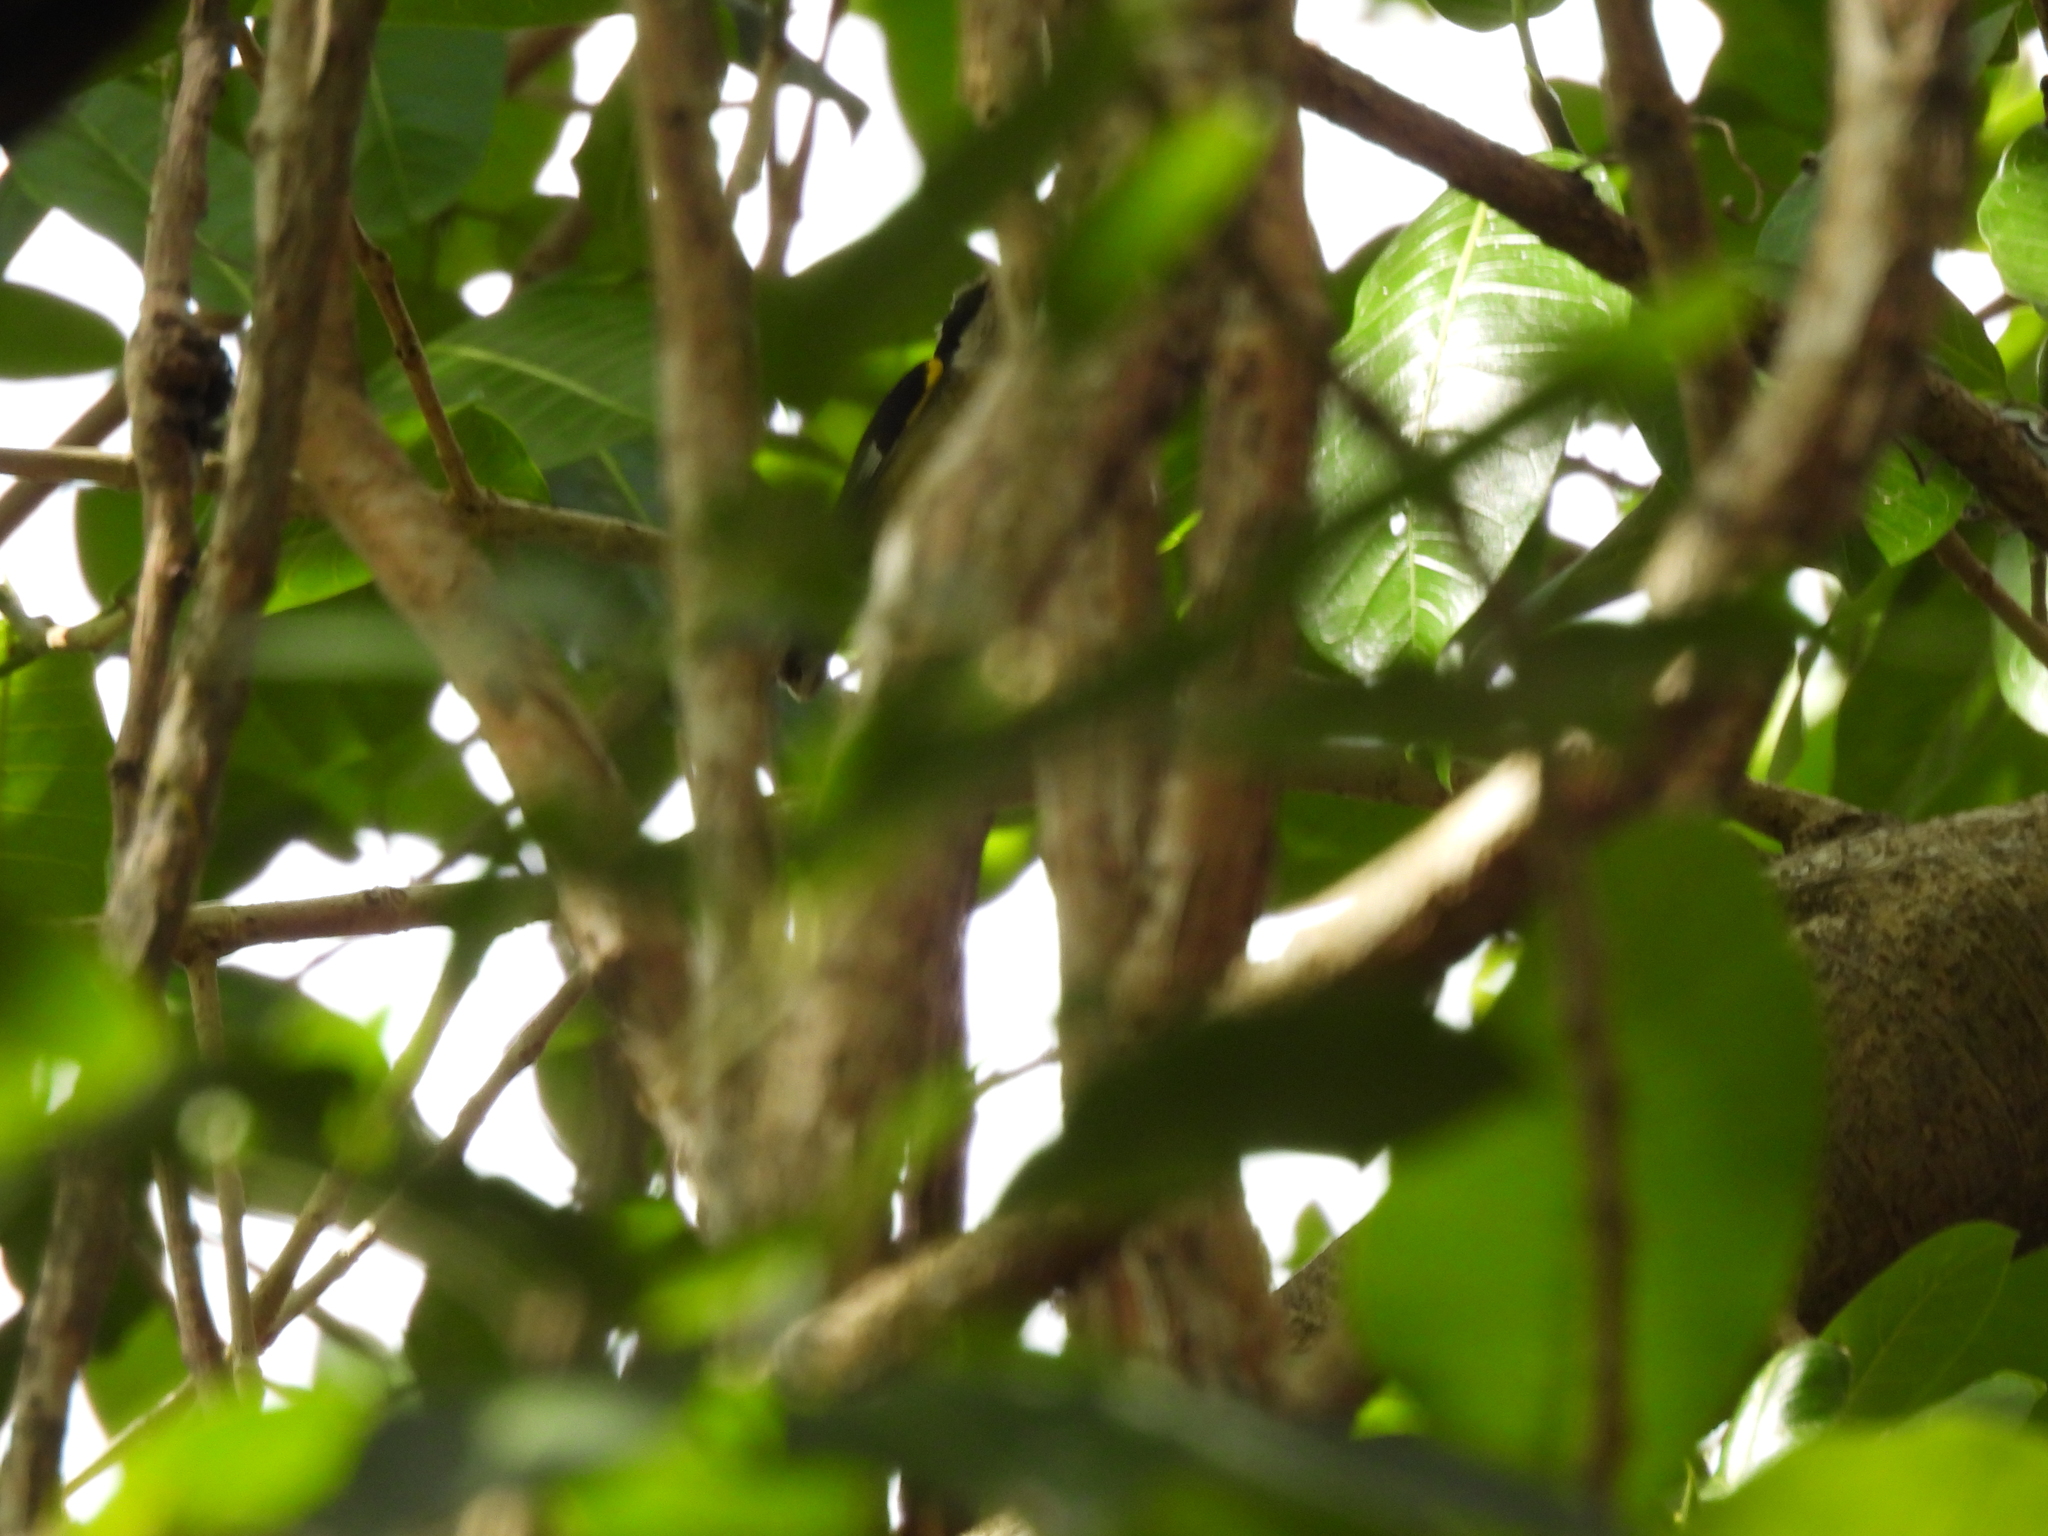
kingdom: Animalia
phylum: Chordata
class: Aves
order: Passeriformes
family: Thraupidae
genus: Coereba
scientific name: Coereba flaveola
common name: Bananaquit
